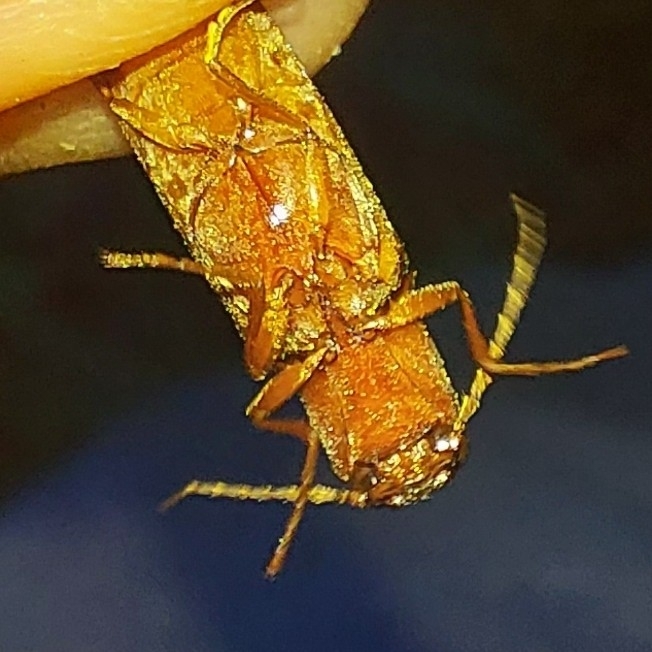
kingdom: Animalia
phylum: Arthropoda
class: Insecta
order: Coleoptera
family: Elateridae
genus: Proludius
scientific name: Proludius pyrros
